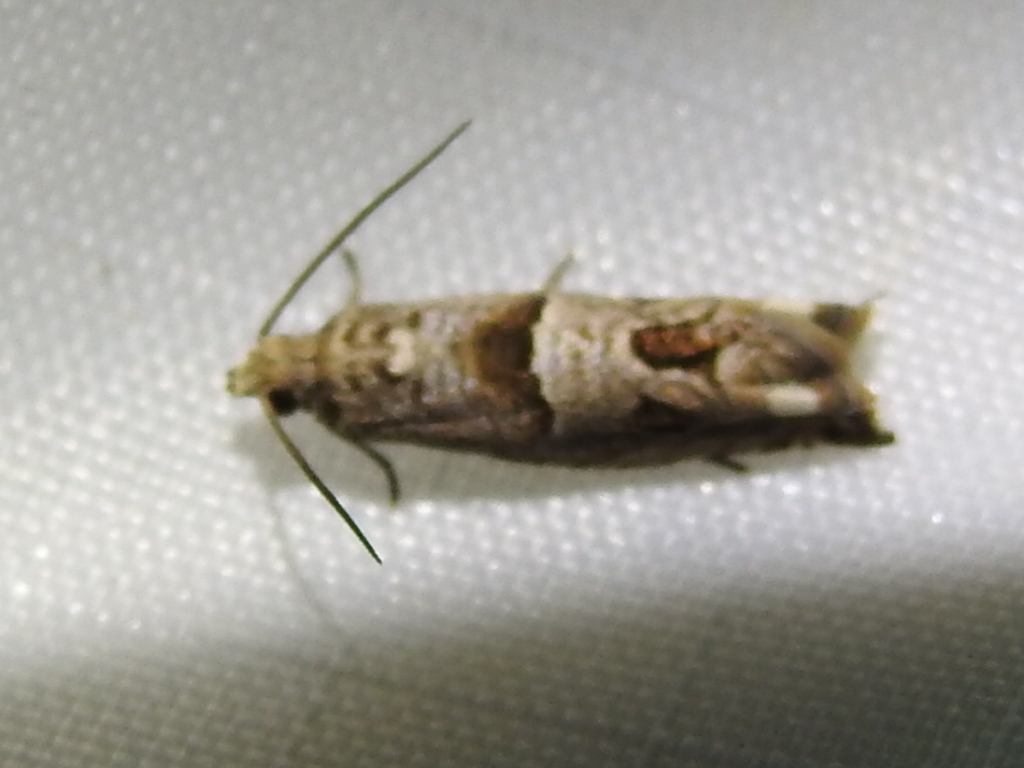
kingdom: Animalia
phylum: Arthropoda
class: Insecta
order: Lepidoptera
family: Tortricidae
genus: Sonia
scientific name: Sonia constrictana
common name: Constricted sonia moth
